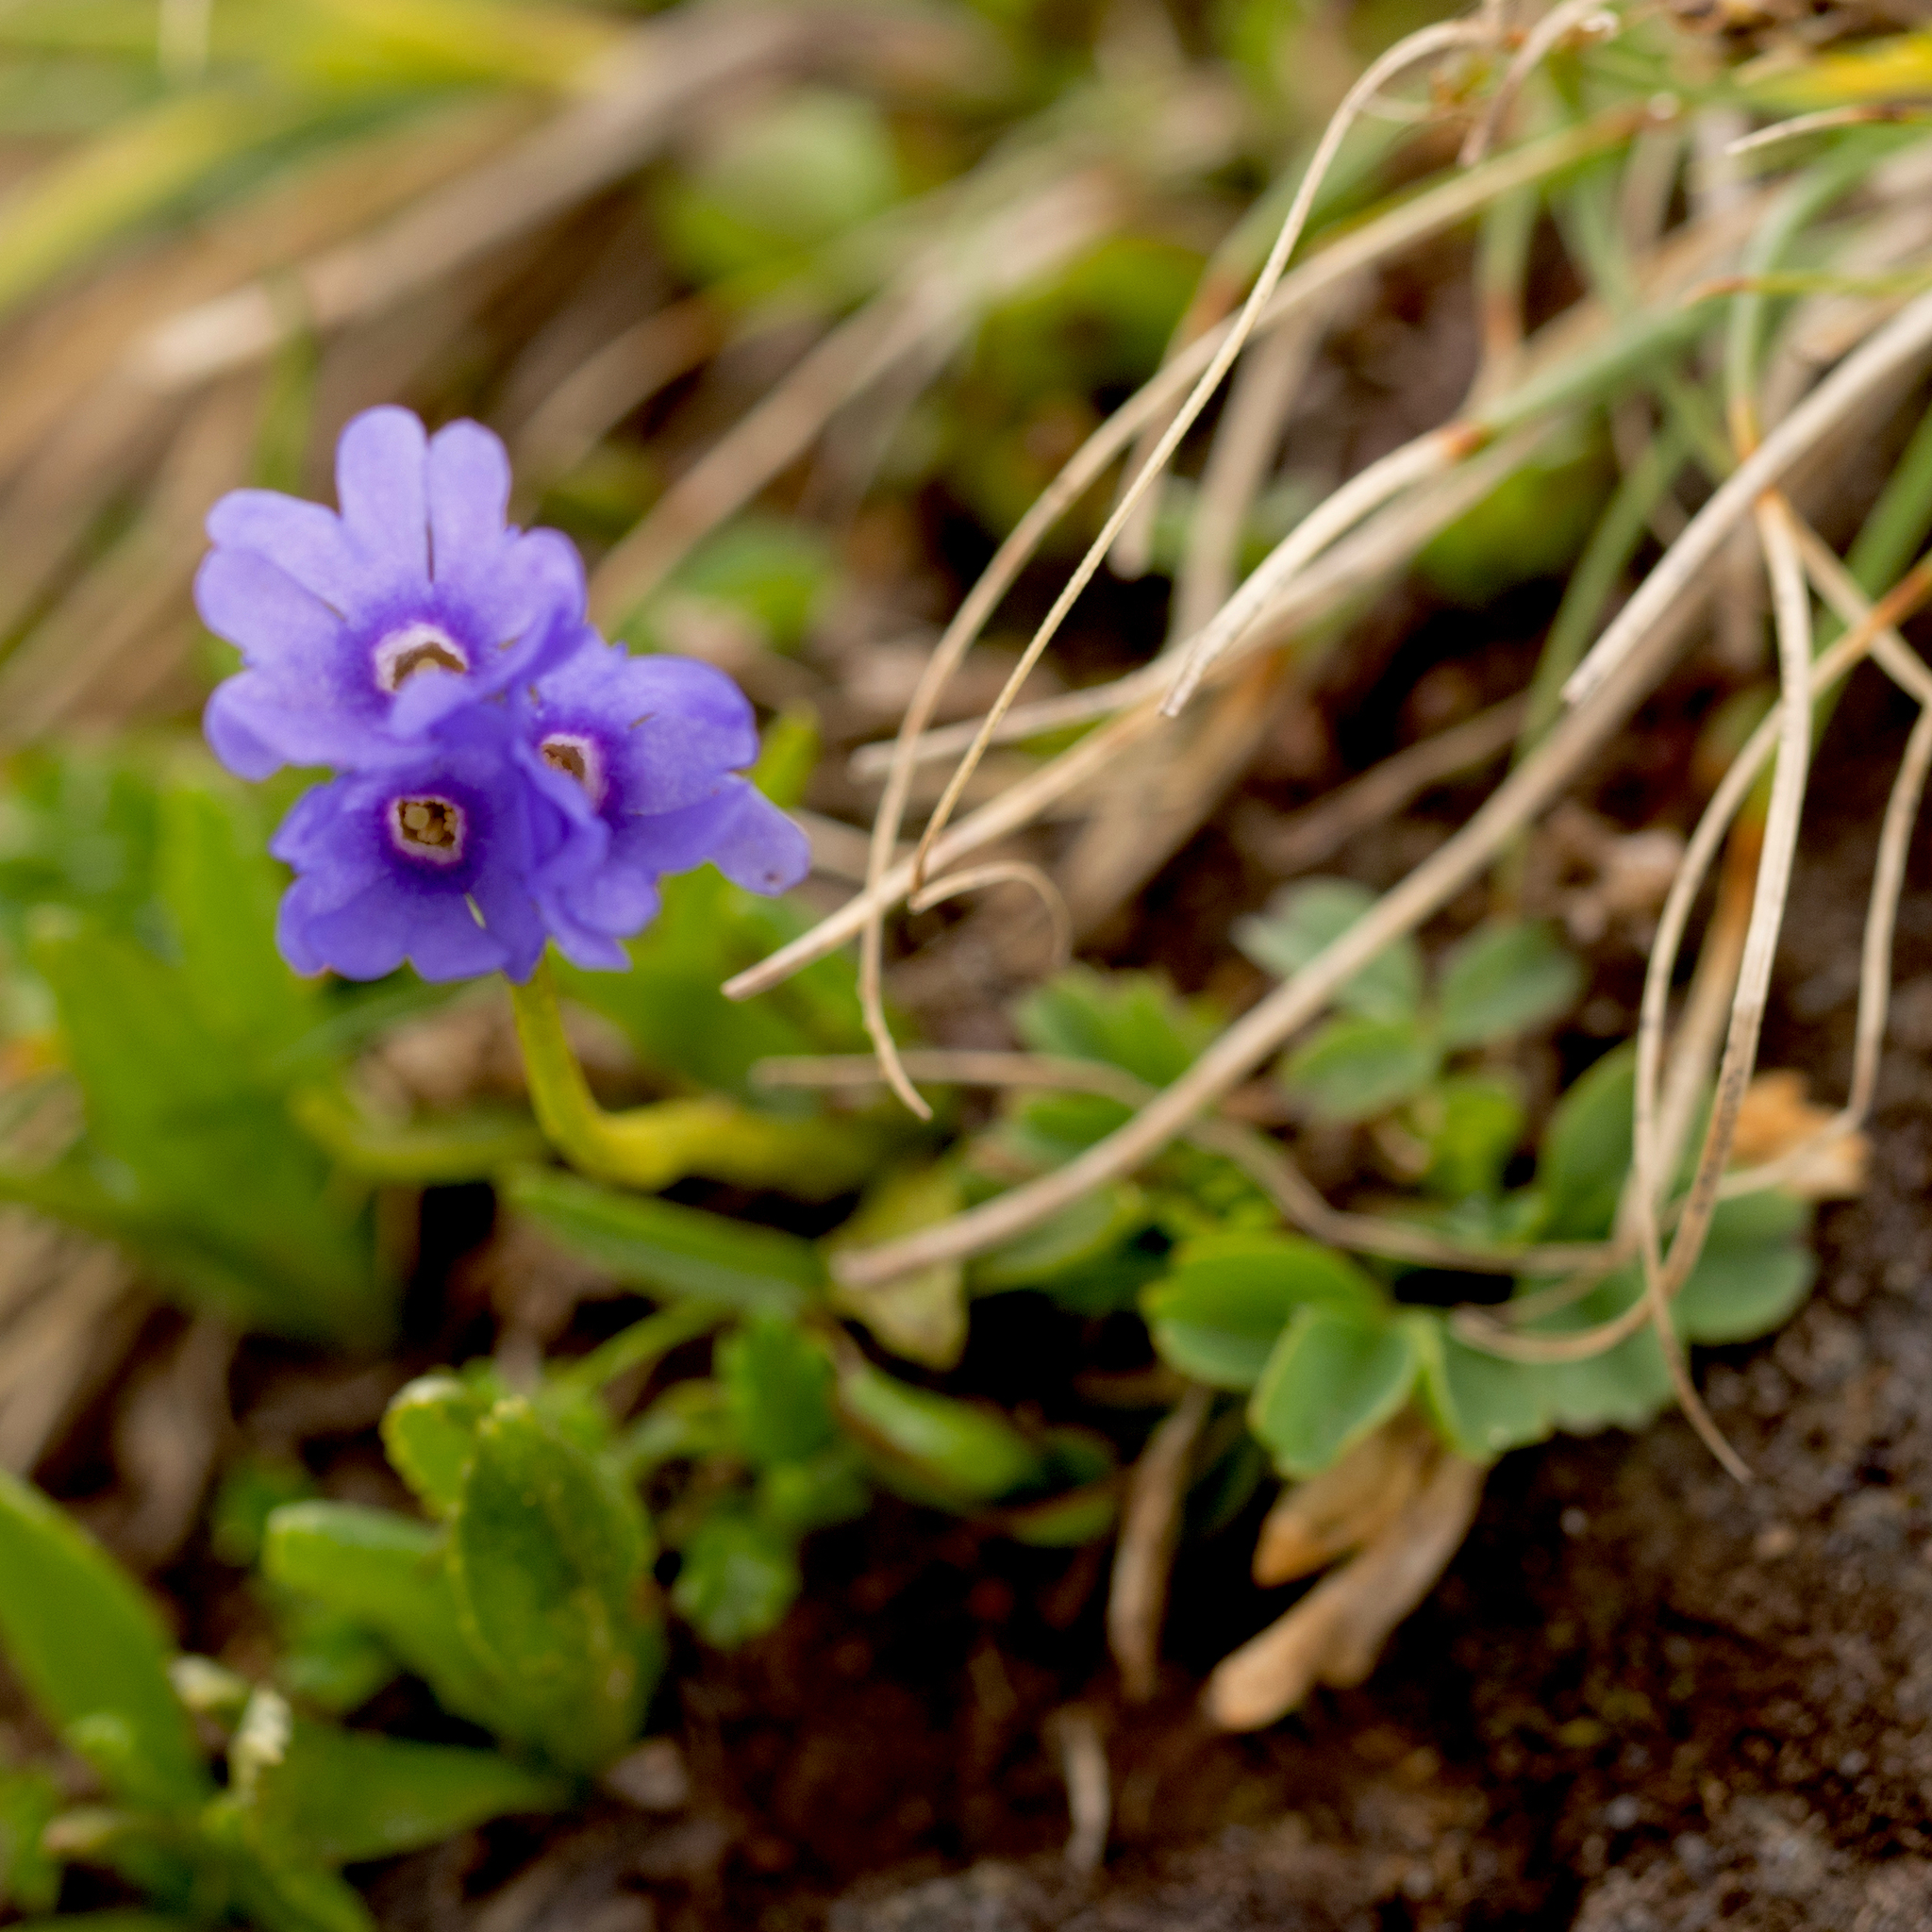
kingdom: Plantae
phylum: Tracheophyta
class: Magnoliopsida
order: Ericales
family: Primulaceae
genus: Primula
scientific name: Primula glutinosa
